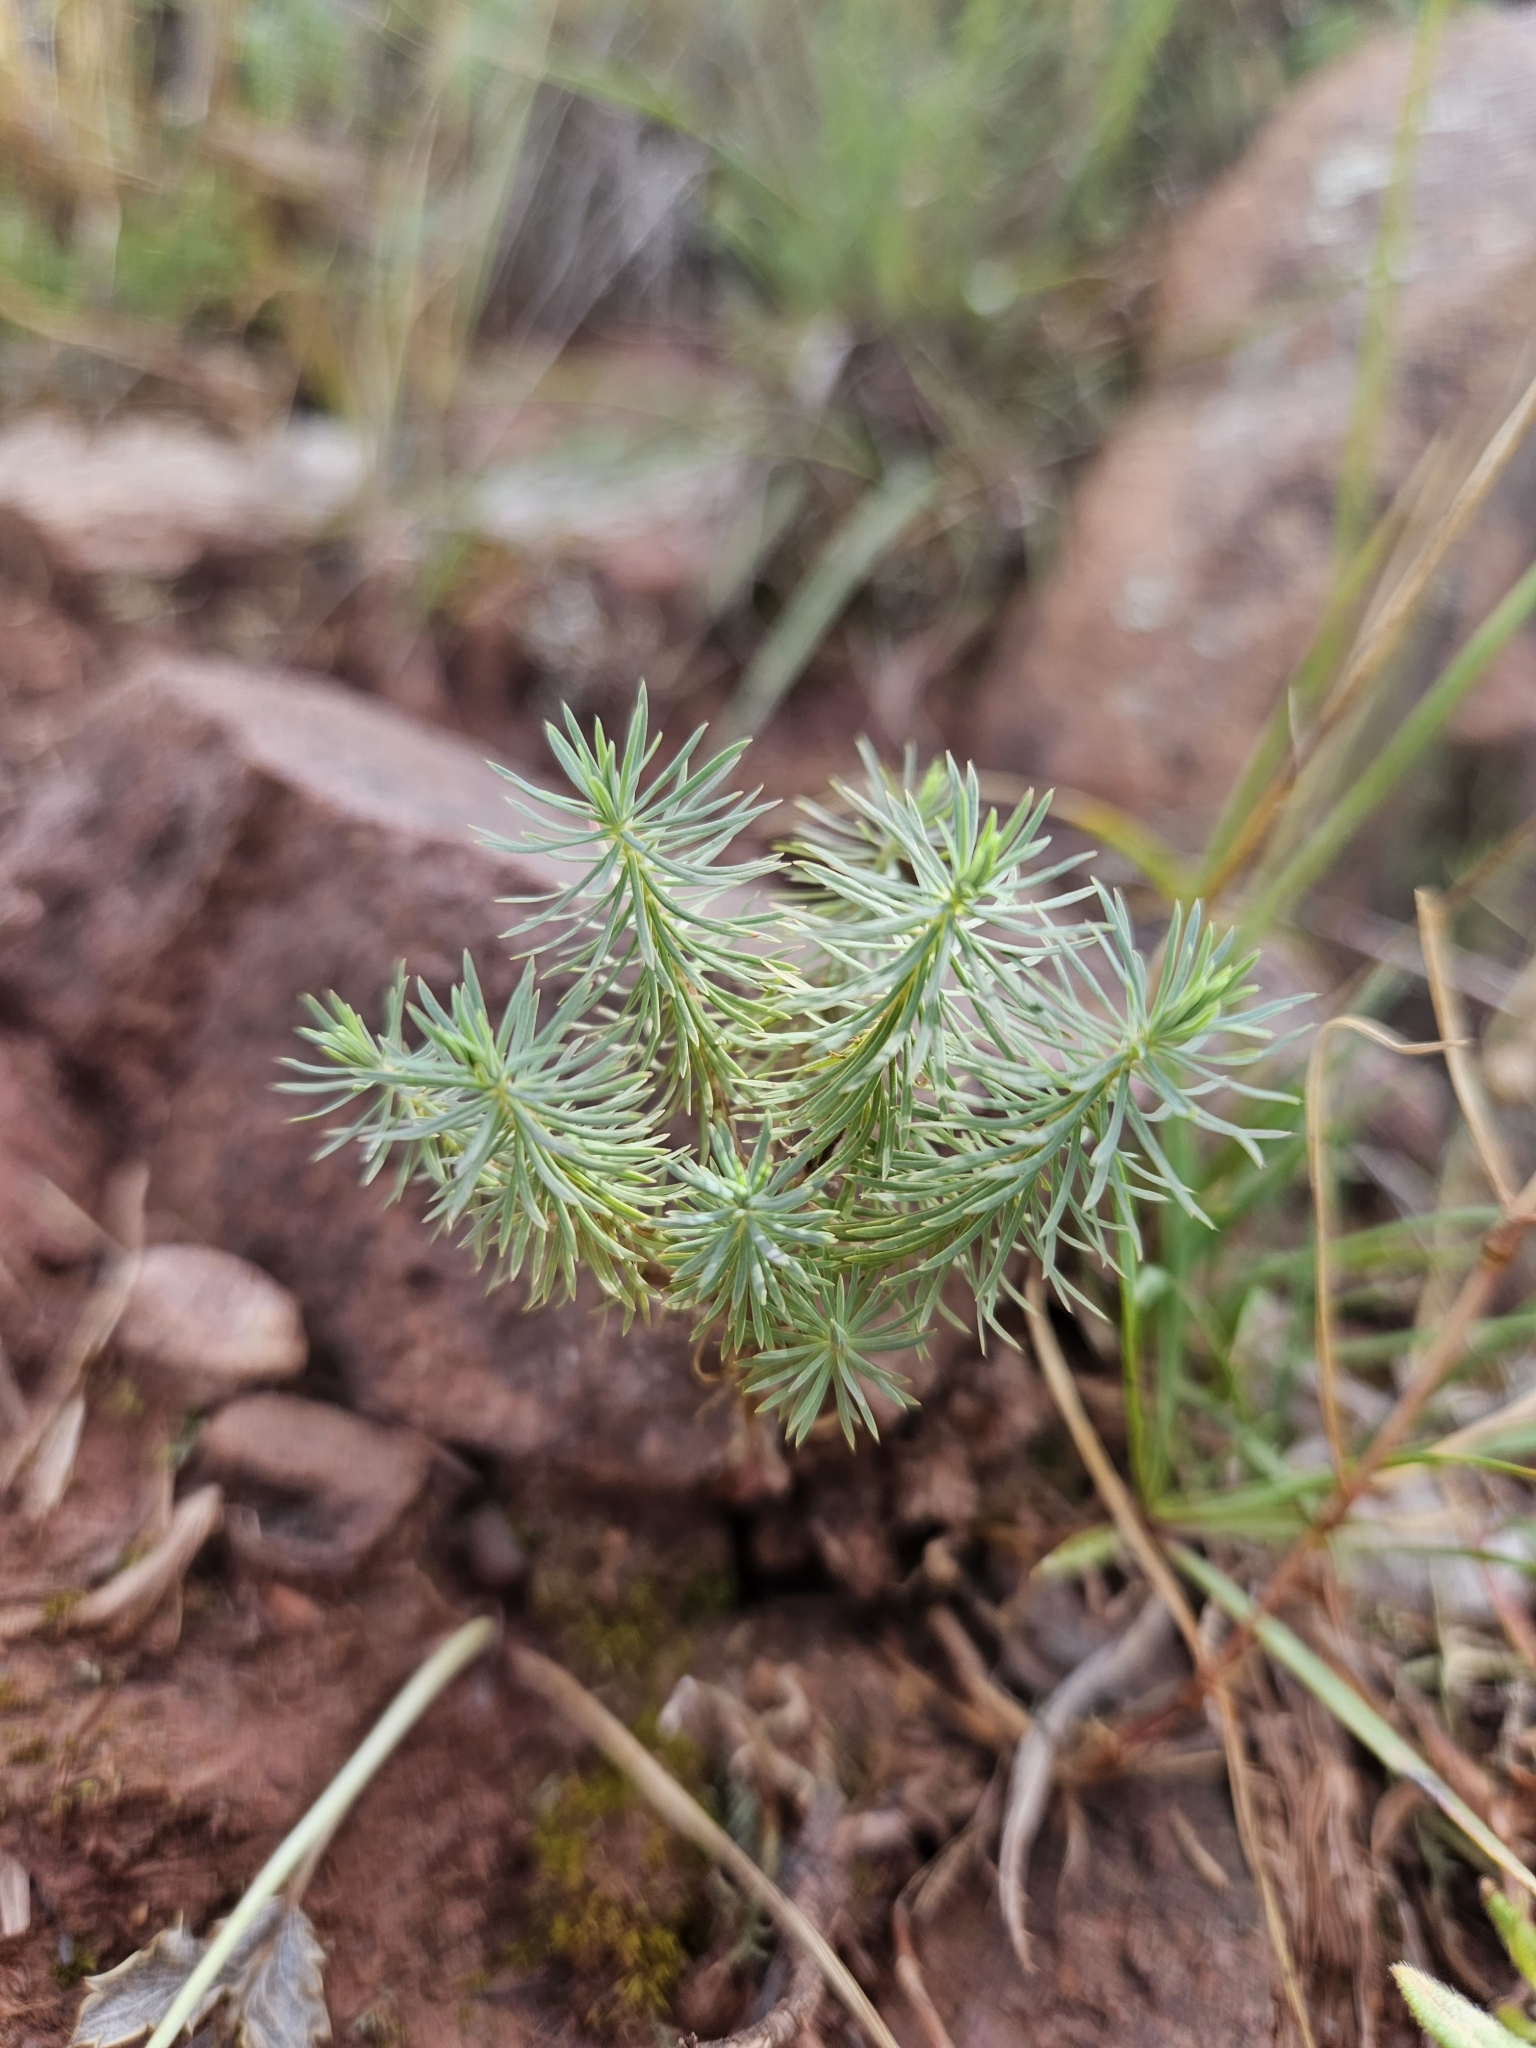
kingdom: Plantae
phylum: Tracheophyta
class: Magnoliopsida
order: Malpighiales
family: Euphorbiaceae
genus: Euphorbia
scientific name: Euphorbia cyparissias
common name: Cypress spurge
